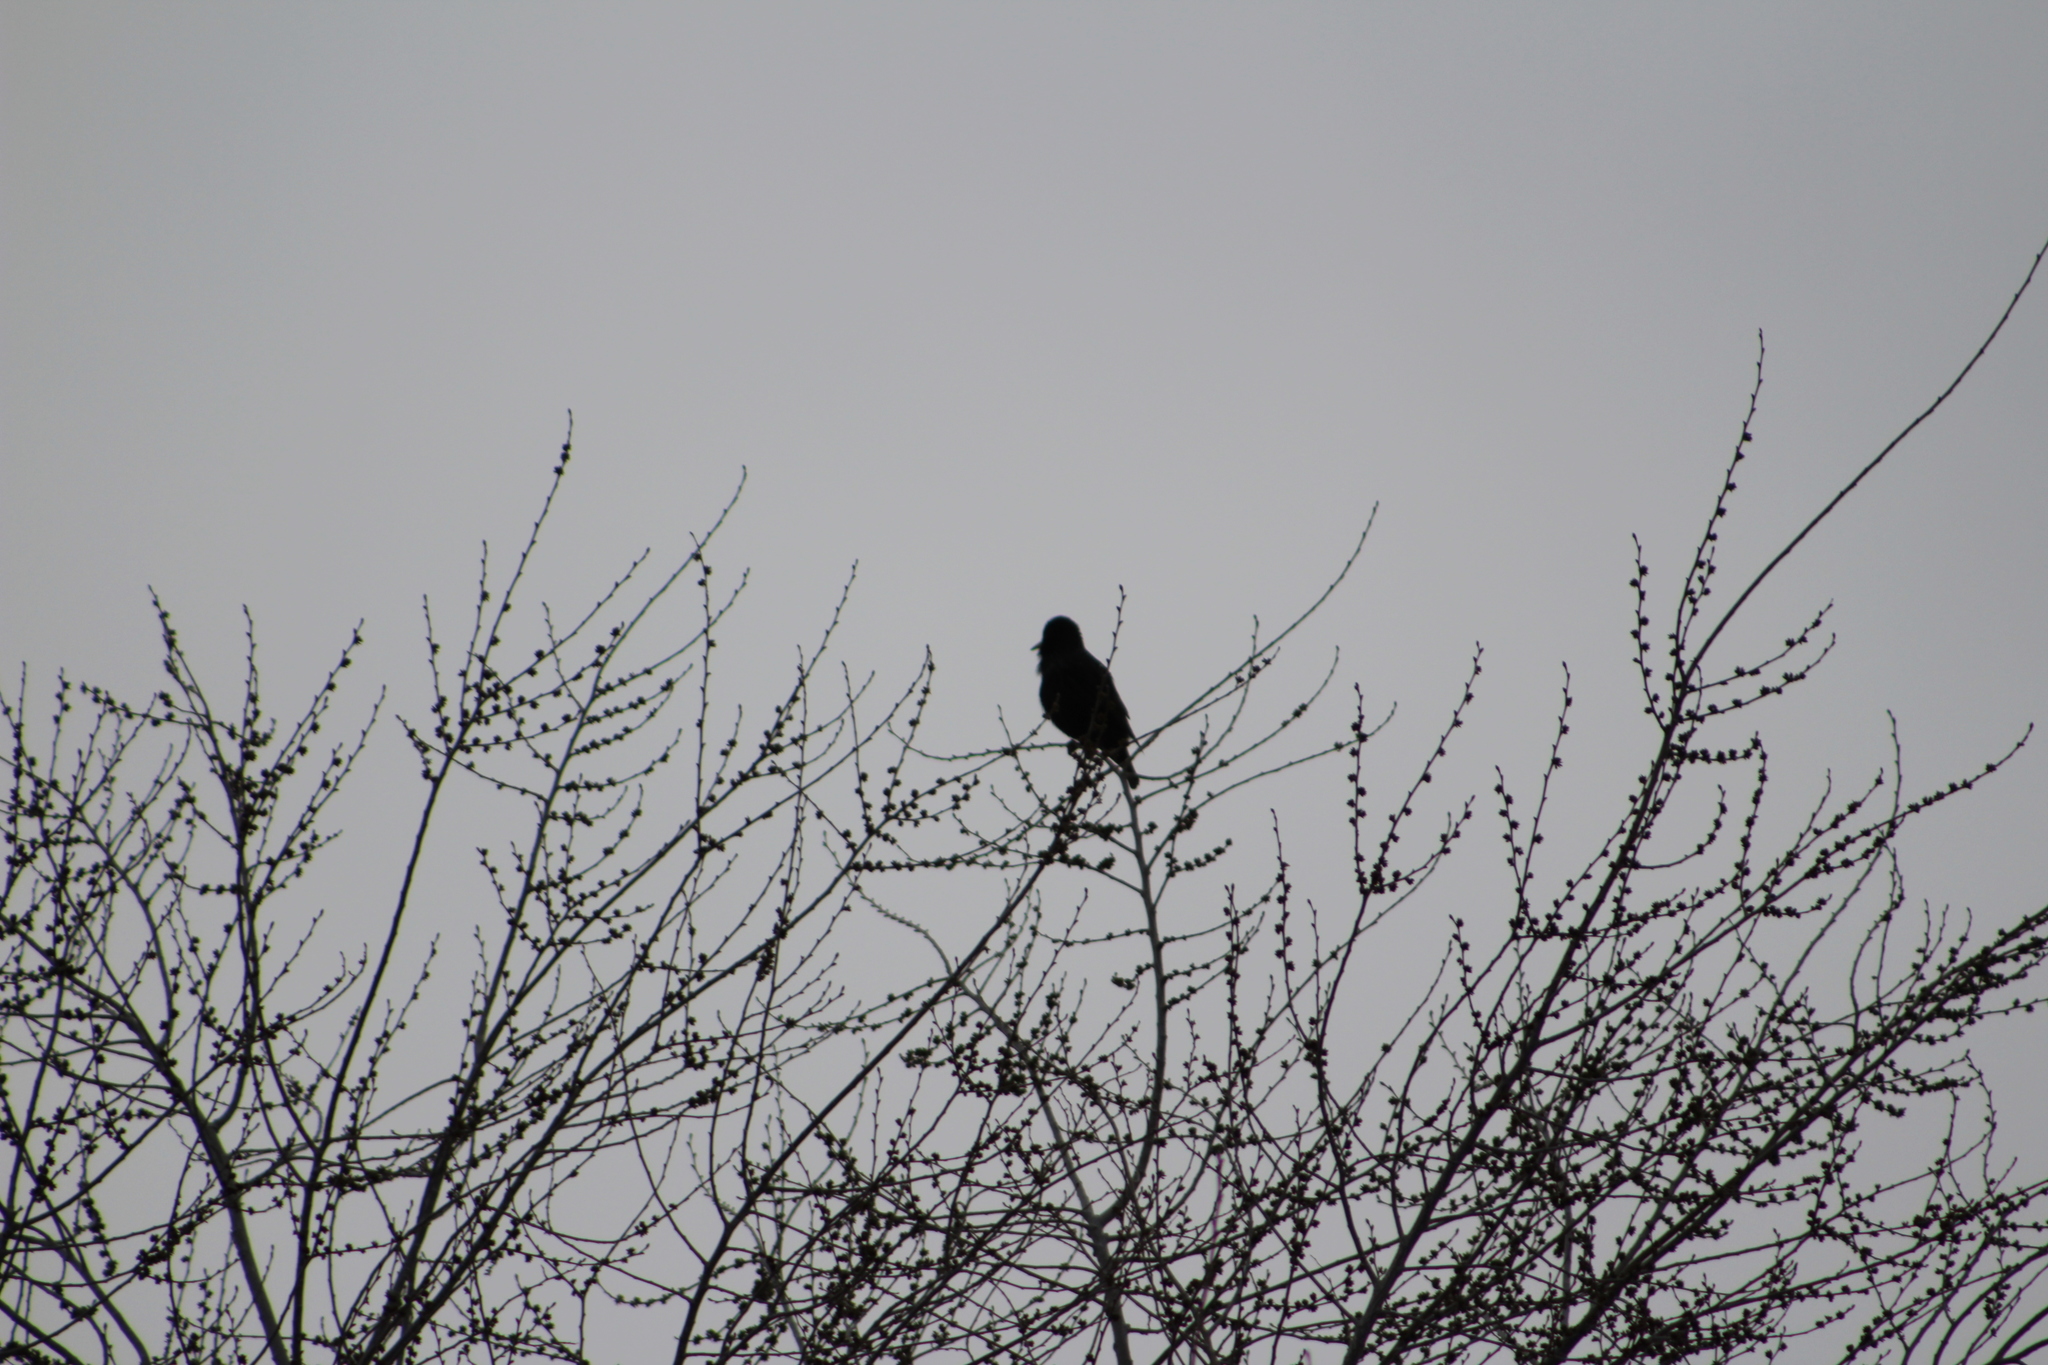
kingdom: Animalia
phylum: Chordata
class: Aves
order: Passeriformes
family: Sturnidae
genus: Sturnus
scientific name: Sturnus vulgaris
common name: Common starling
